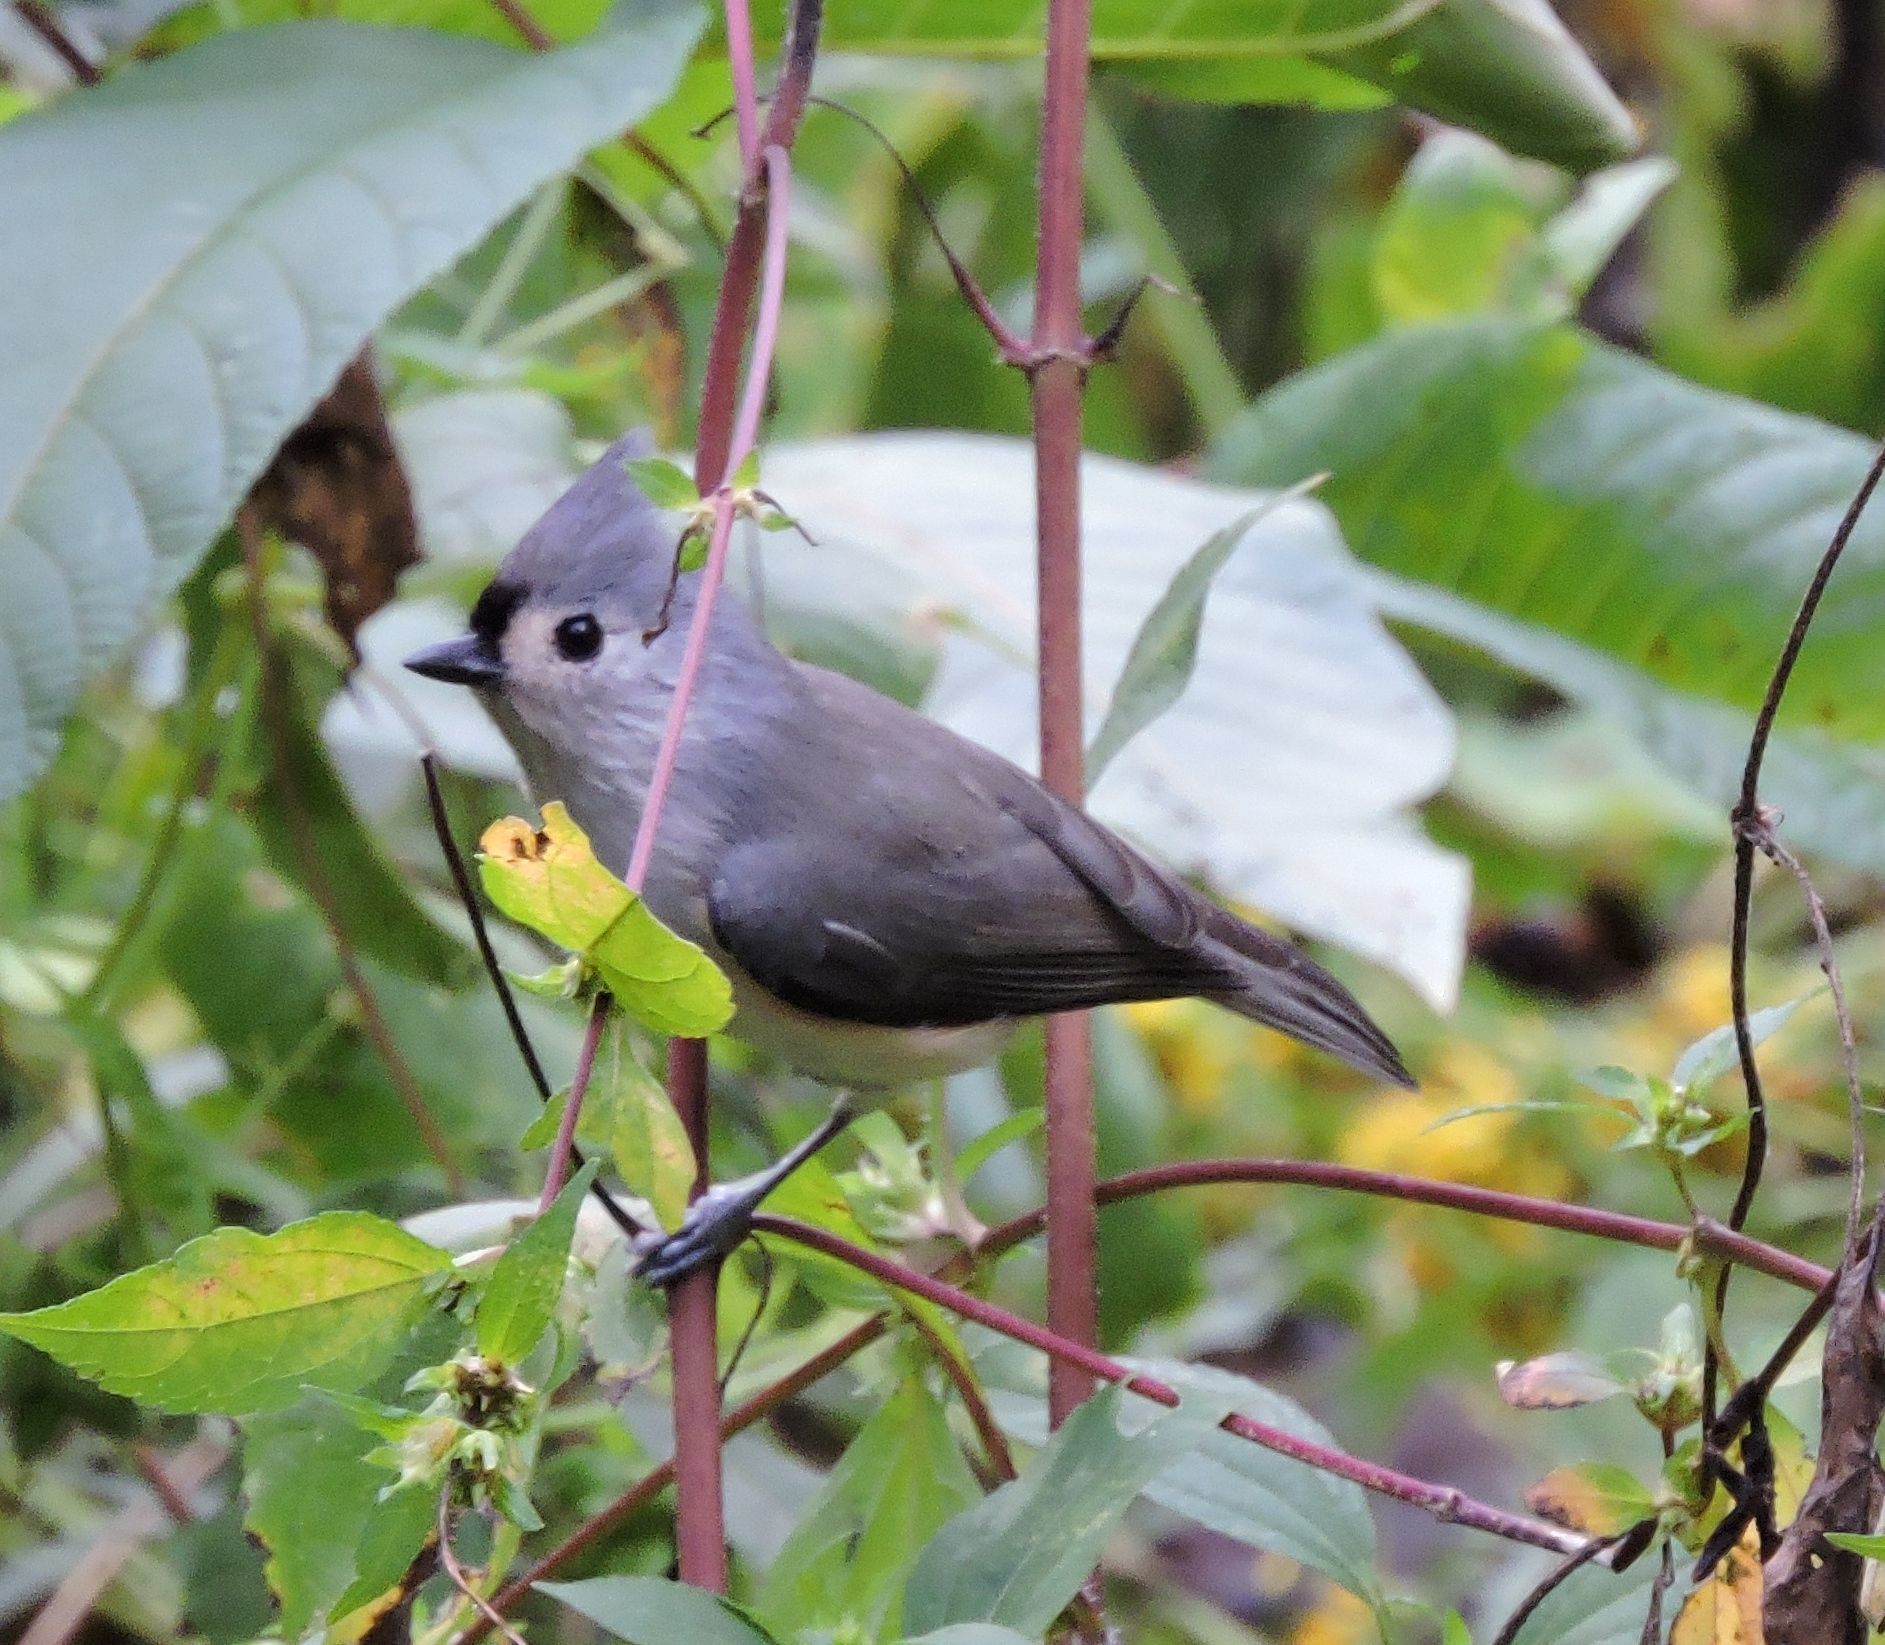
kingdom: Animalia
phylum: Chordata
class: Aves
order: Passeriformes
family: Paridae
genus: Baeolophus
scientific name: Baeolophus bicolor
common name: Tufted titmouse
